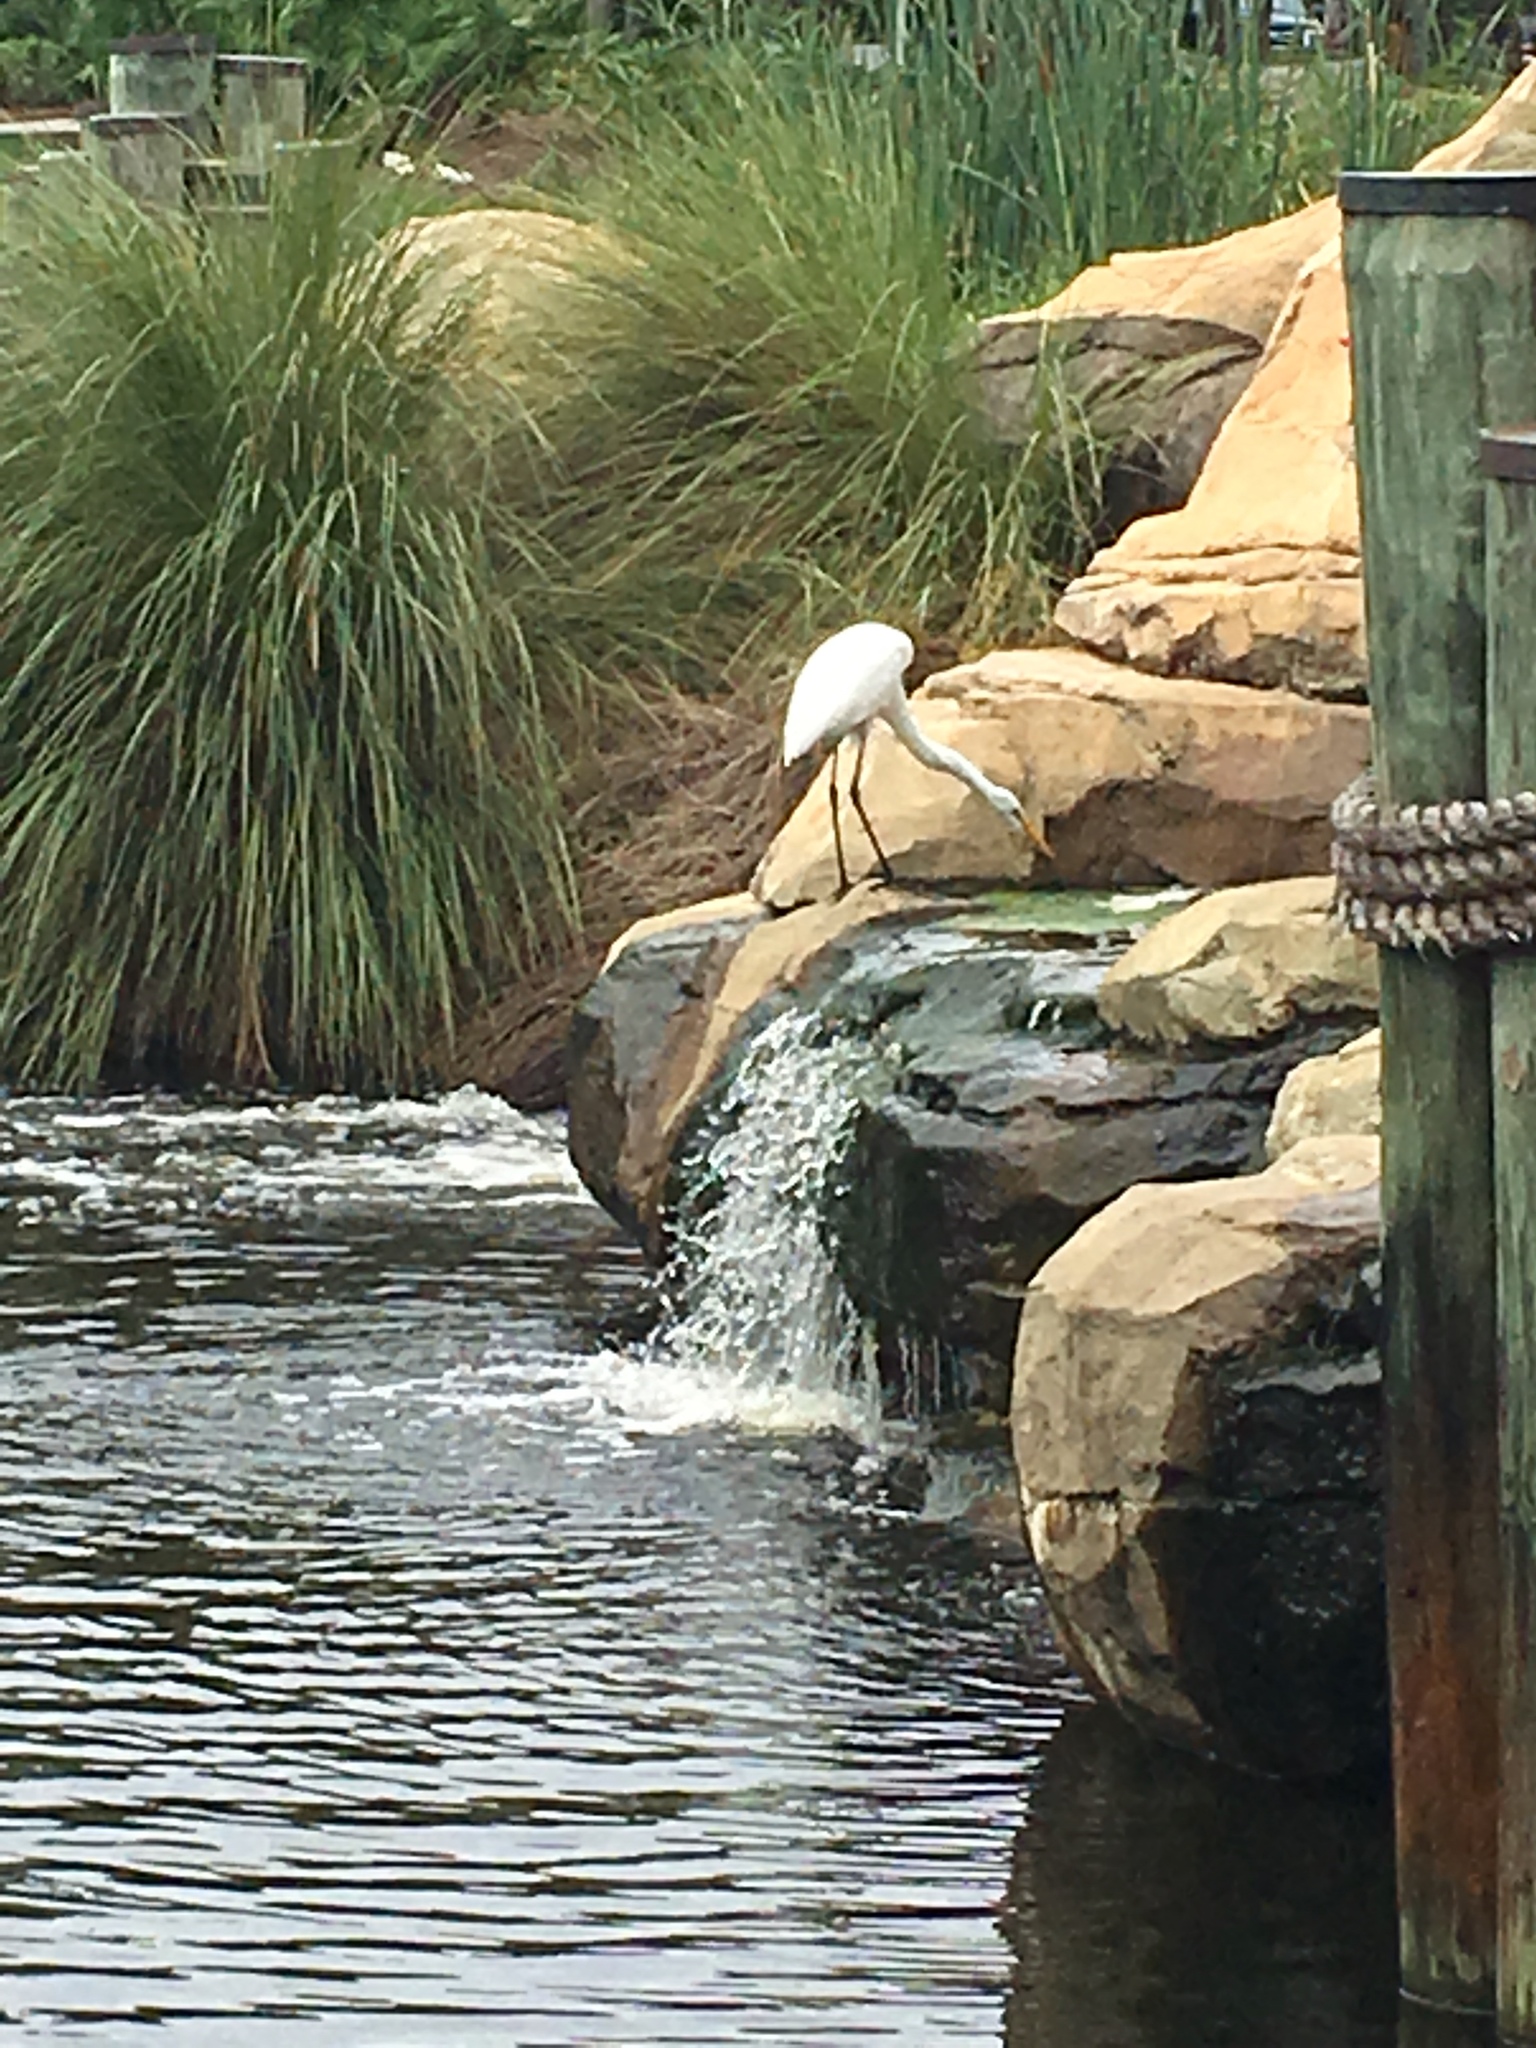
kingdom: Animalia
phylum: Chordata
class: Aves
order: Pelecaniformes
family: Ardeidae
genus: Ardea
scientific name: Ardea alba
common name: Great egret
